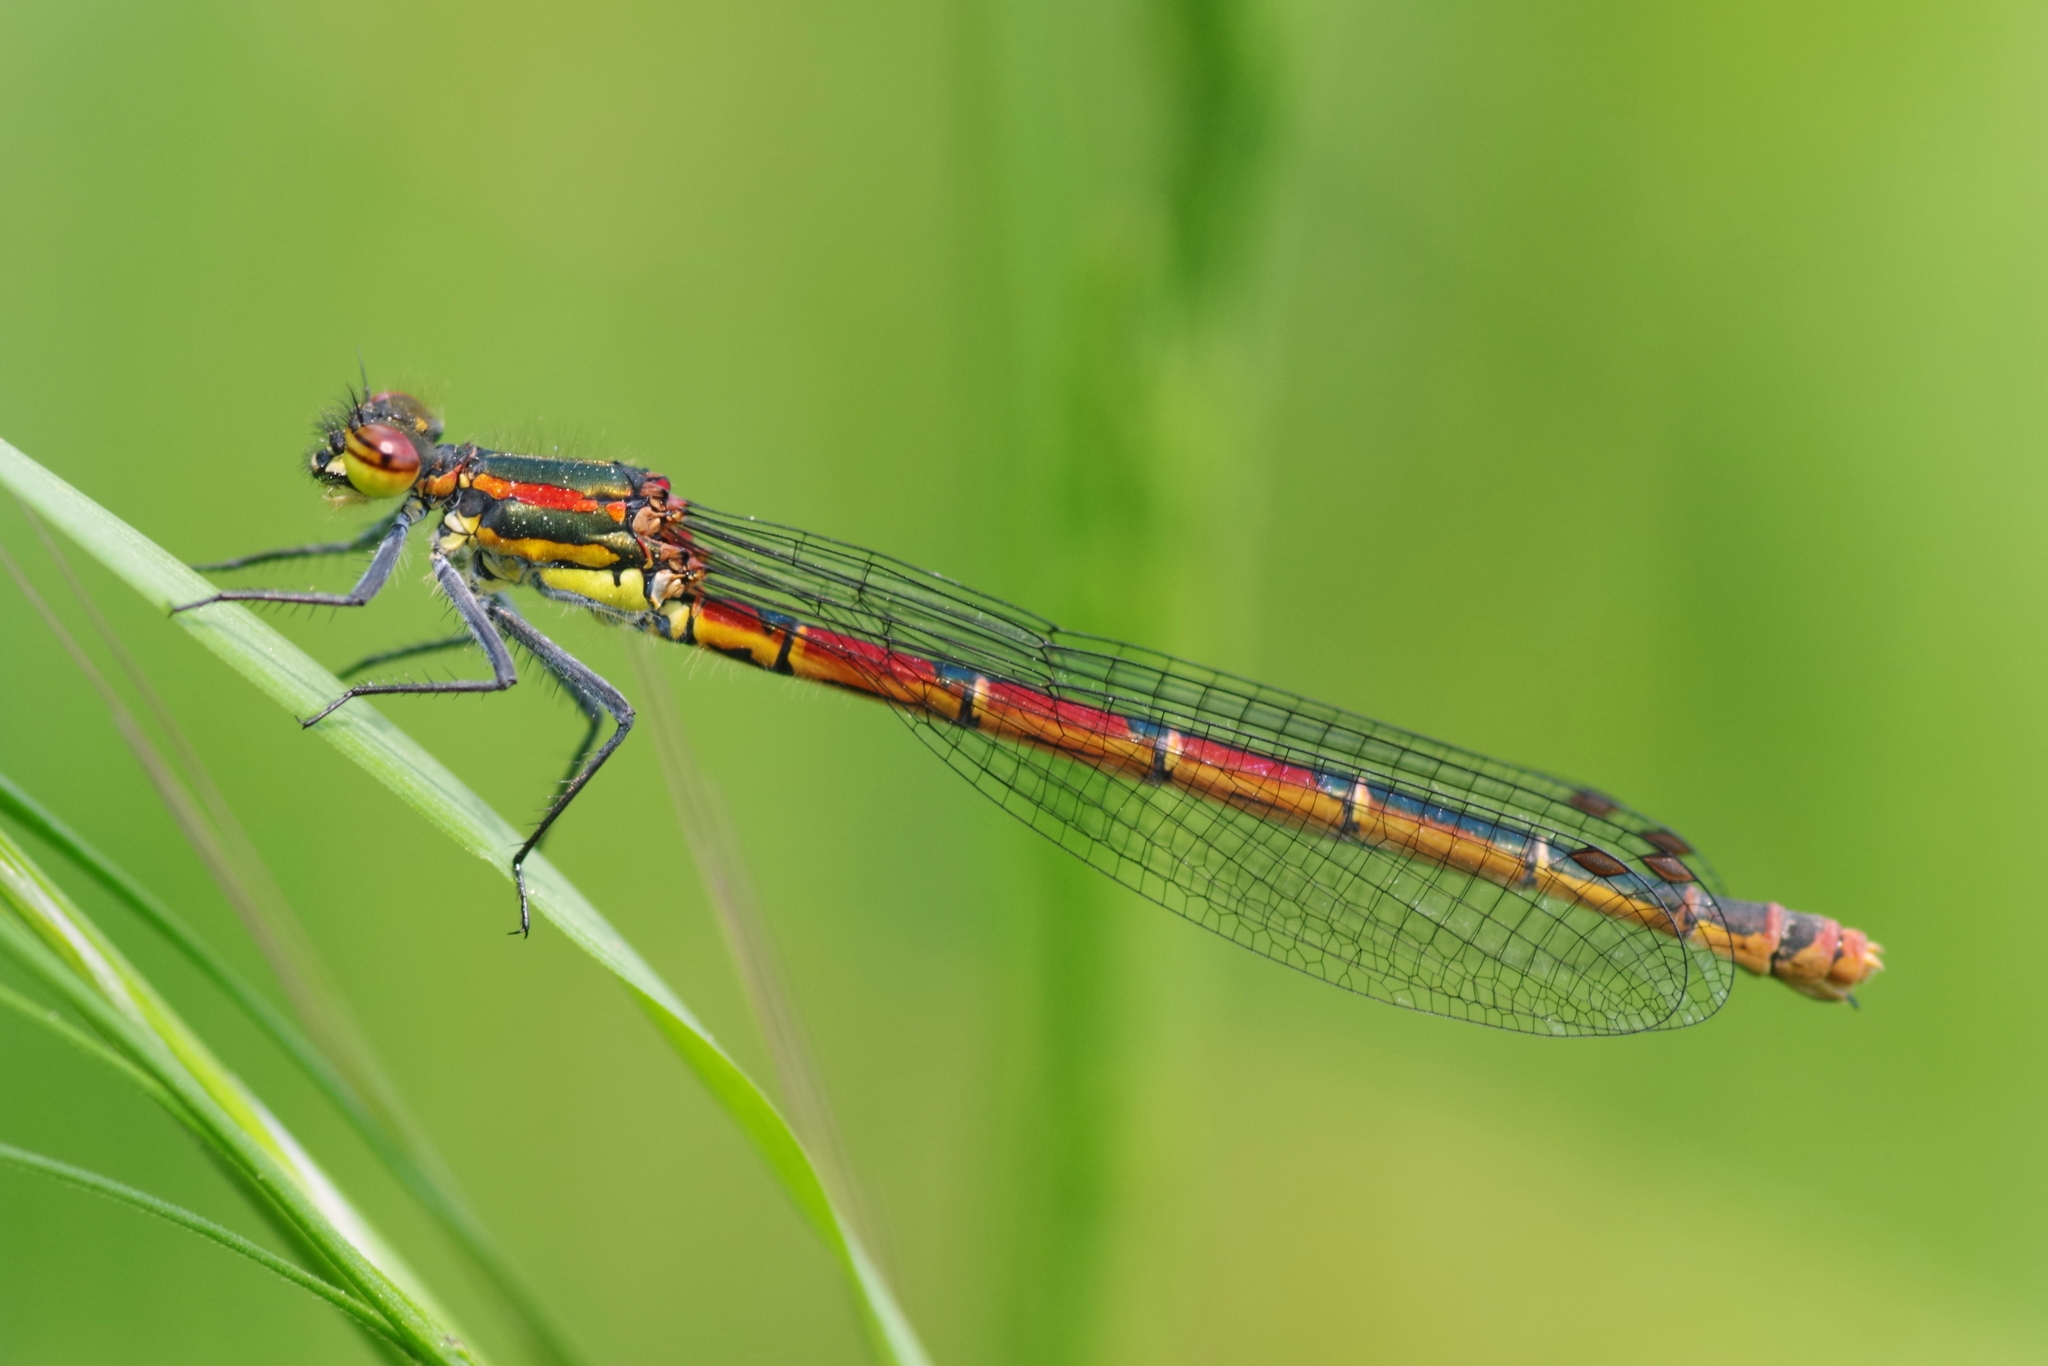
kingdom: Animalia
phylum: Arthropoda
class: Insecta
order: Odonata
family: Coenagrionidae
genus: Pyrrhosoma
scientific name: Pyrrhosoma nymphula
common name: Large red damsel
